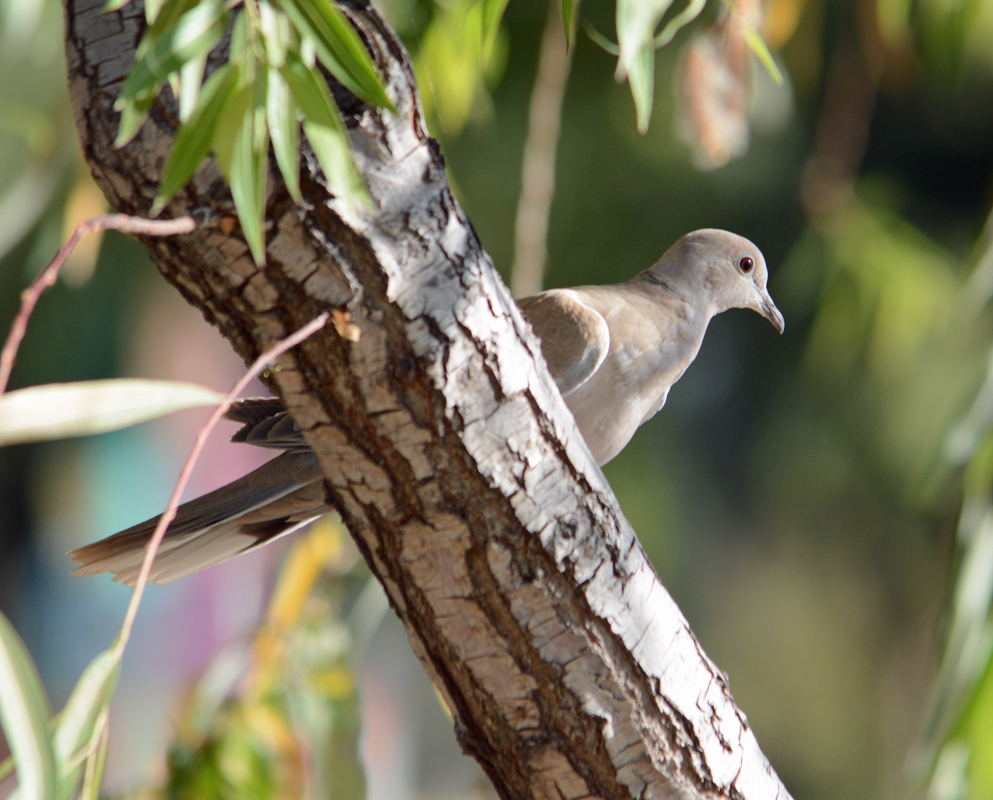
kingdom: Animalia
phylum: Chordata
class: Aves
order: Columbiformes
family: Columbidae
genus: Streptopelia
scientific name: Streptopelia decaocto
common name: Eurasian collared dove
